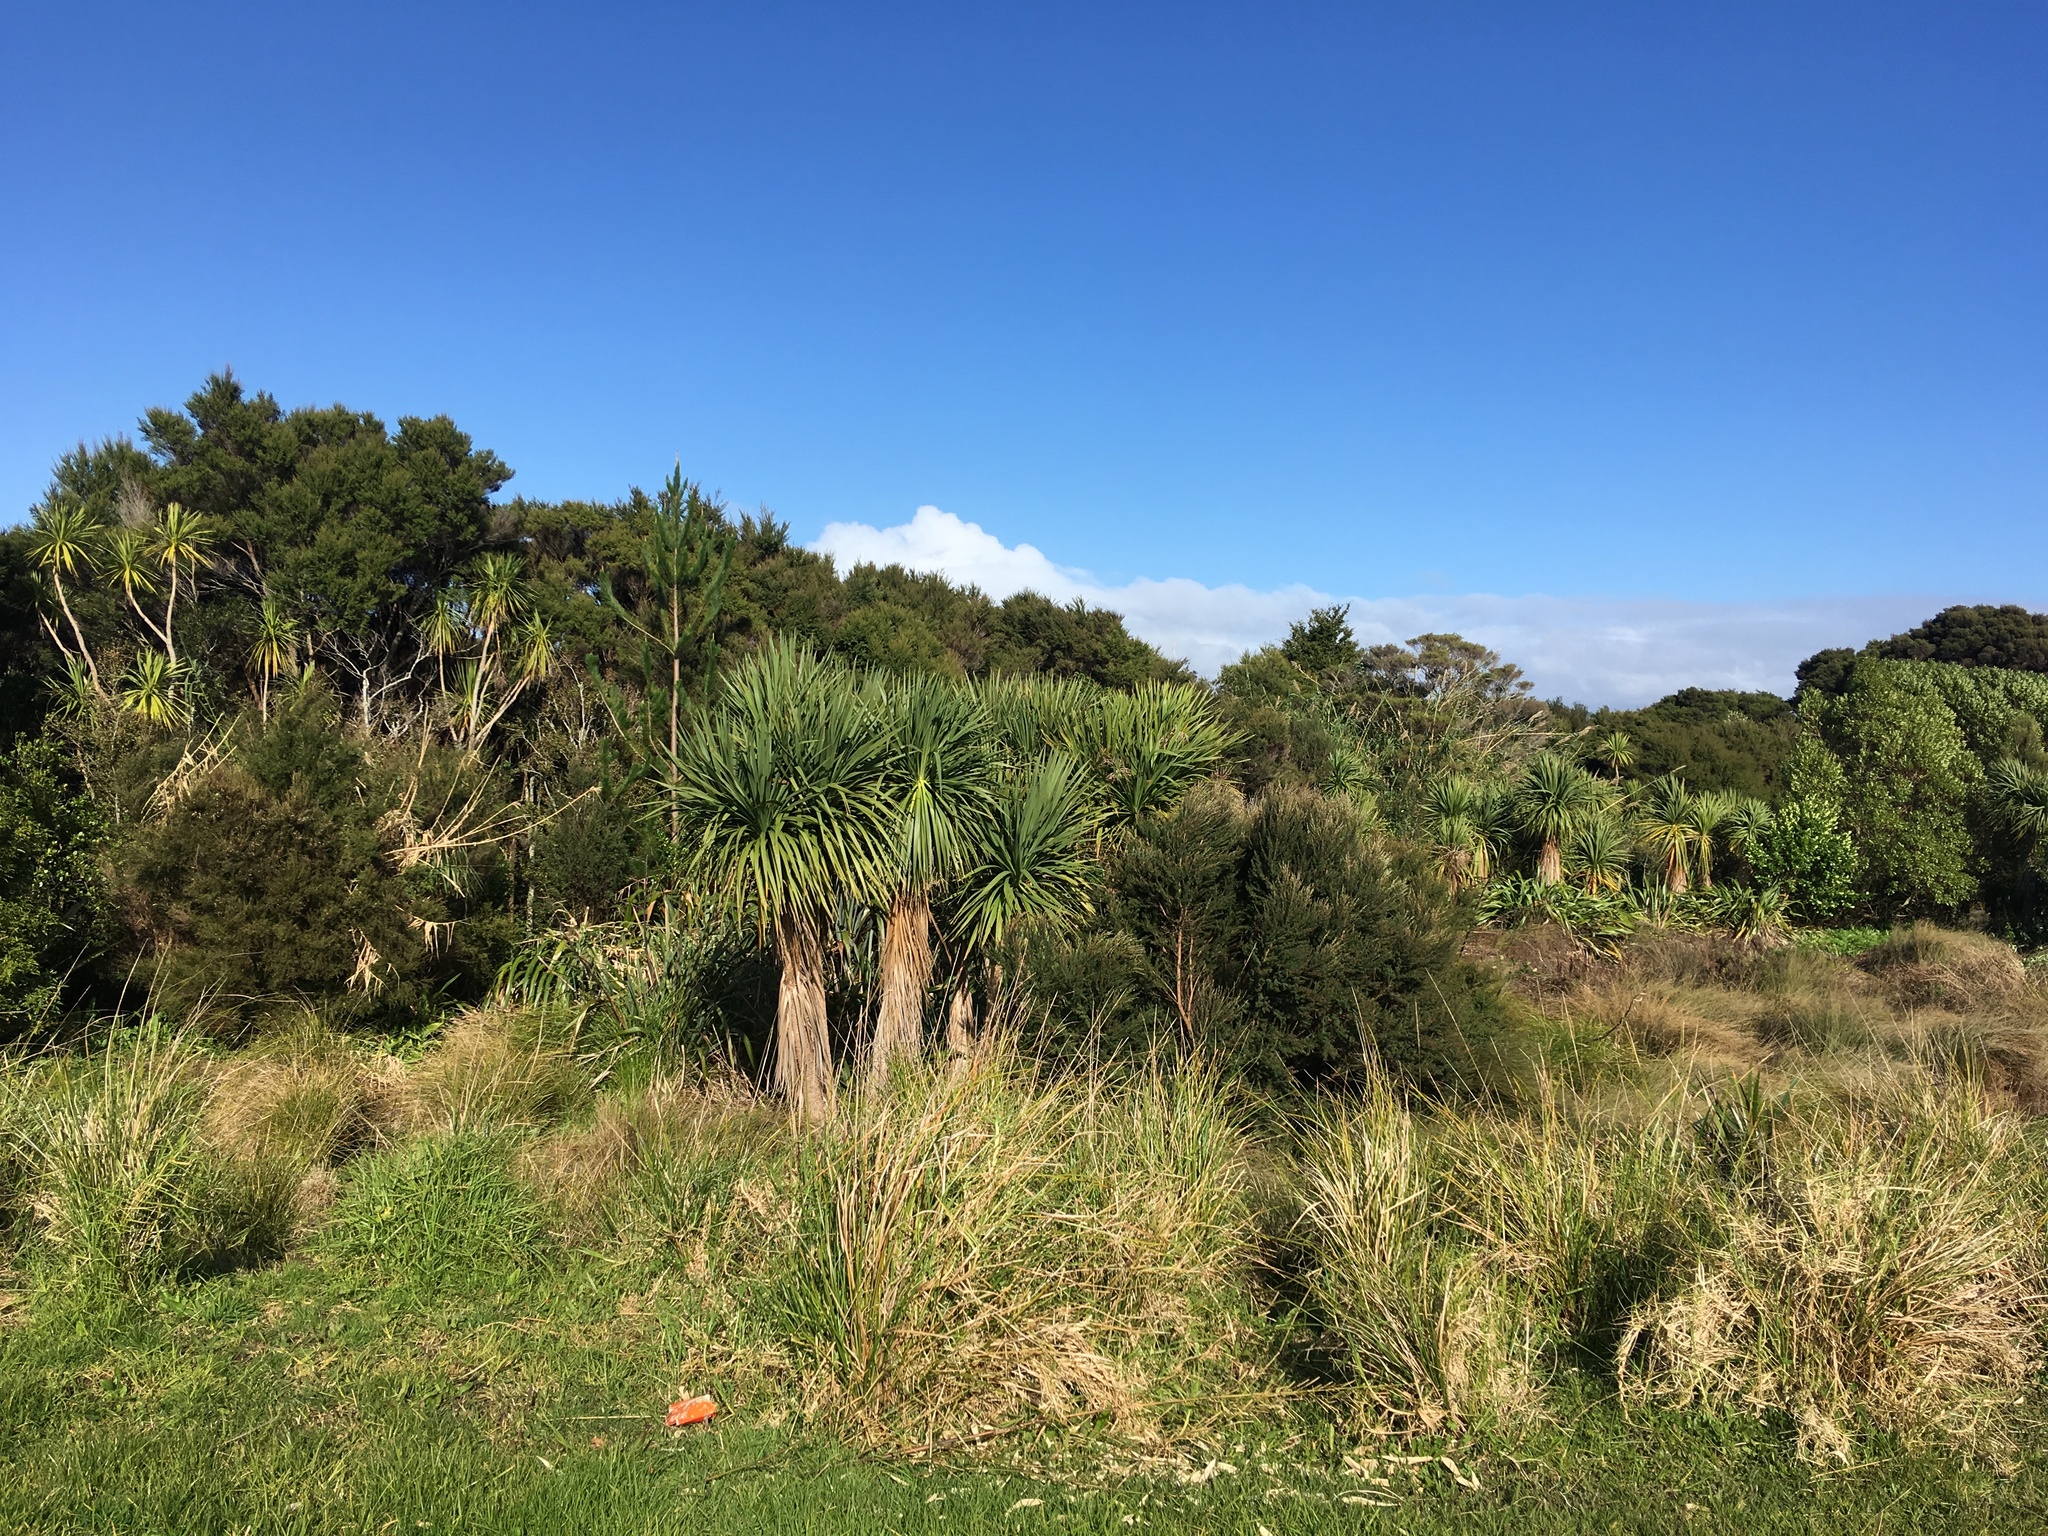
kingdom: Plantae
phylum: Tracheophyta
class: Liliopsida
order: Poales
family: Poaceae
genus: Cenchrus
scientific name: Cenchrus clandestinus
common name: Kikuyugrass
